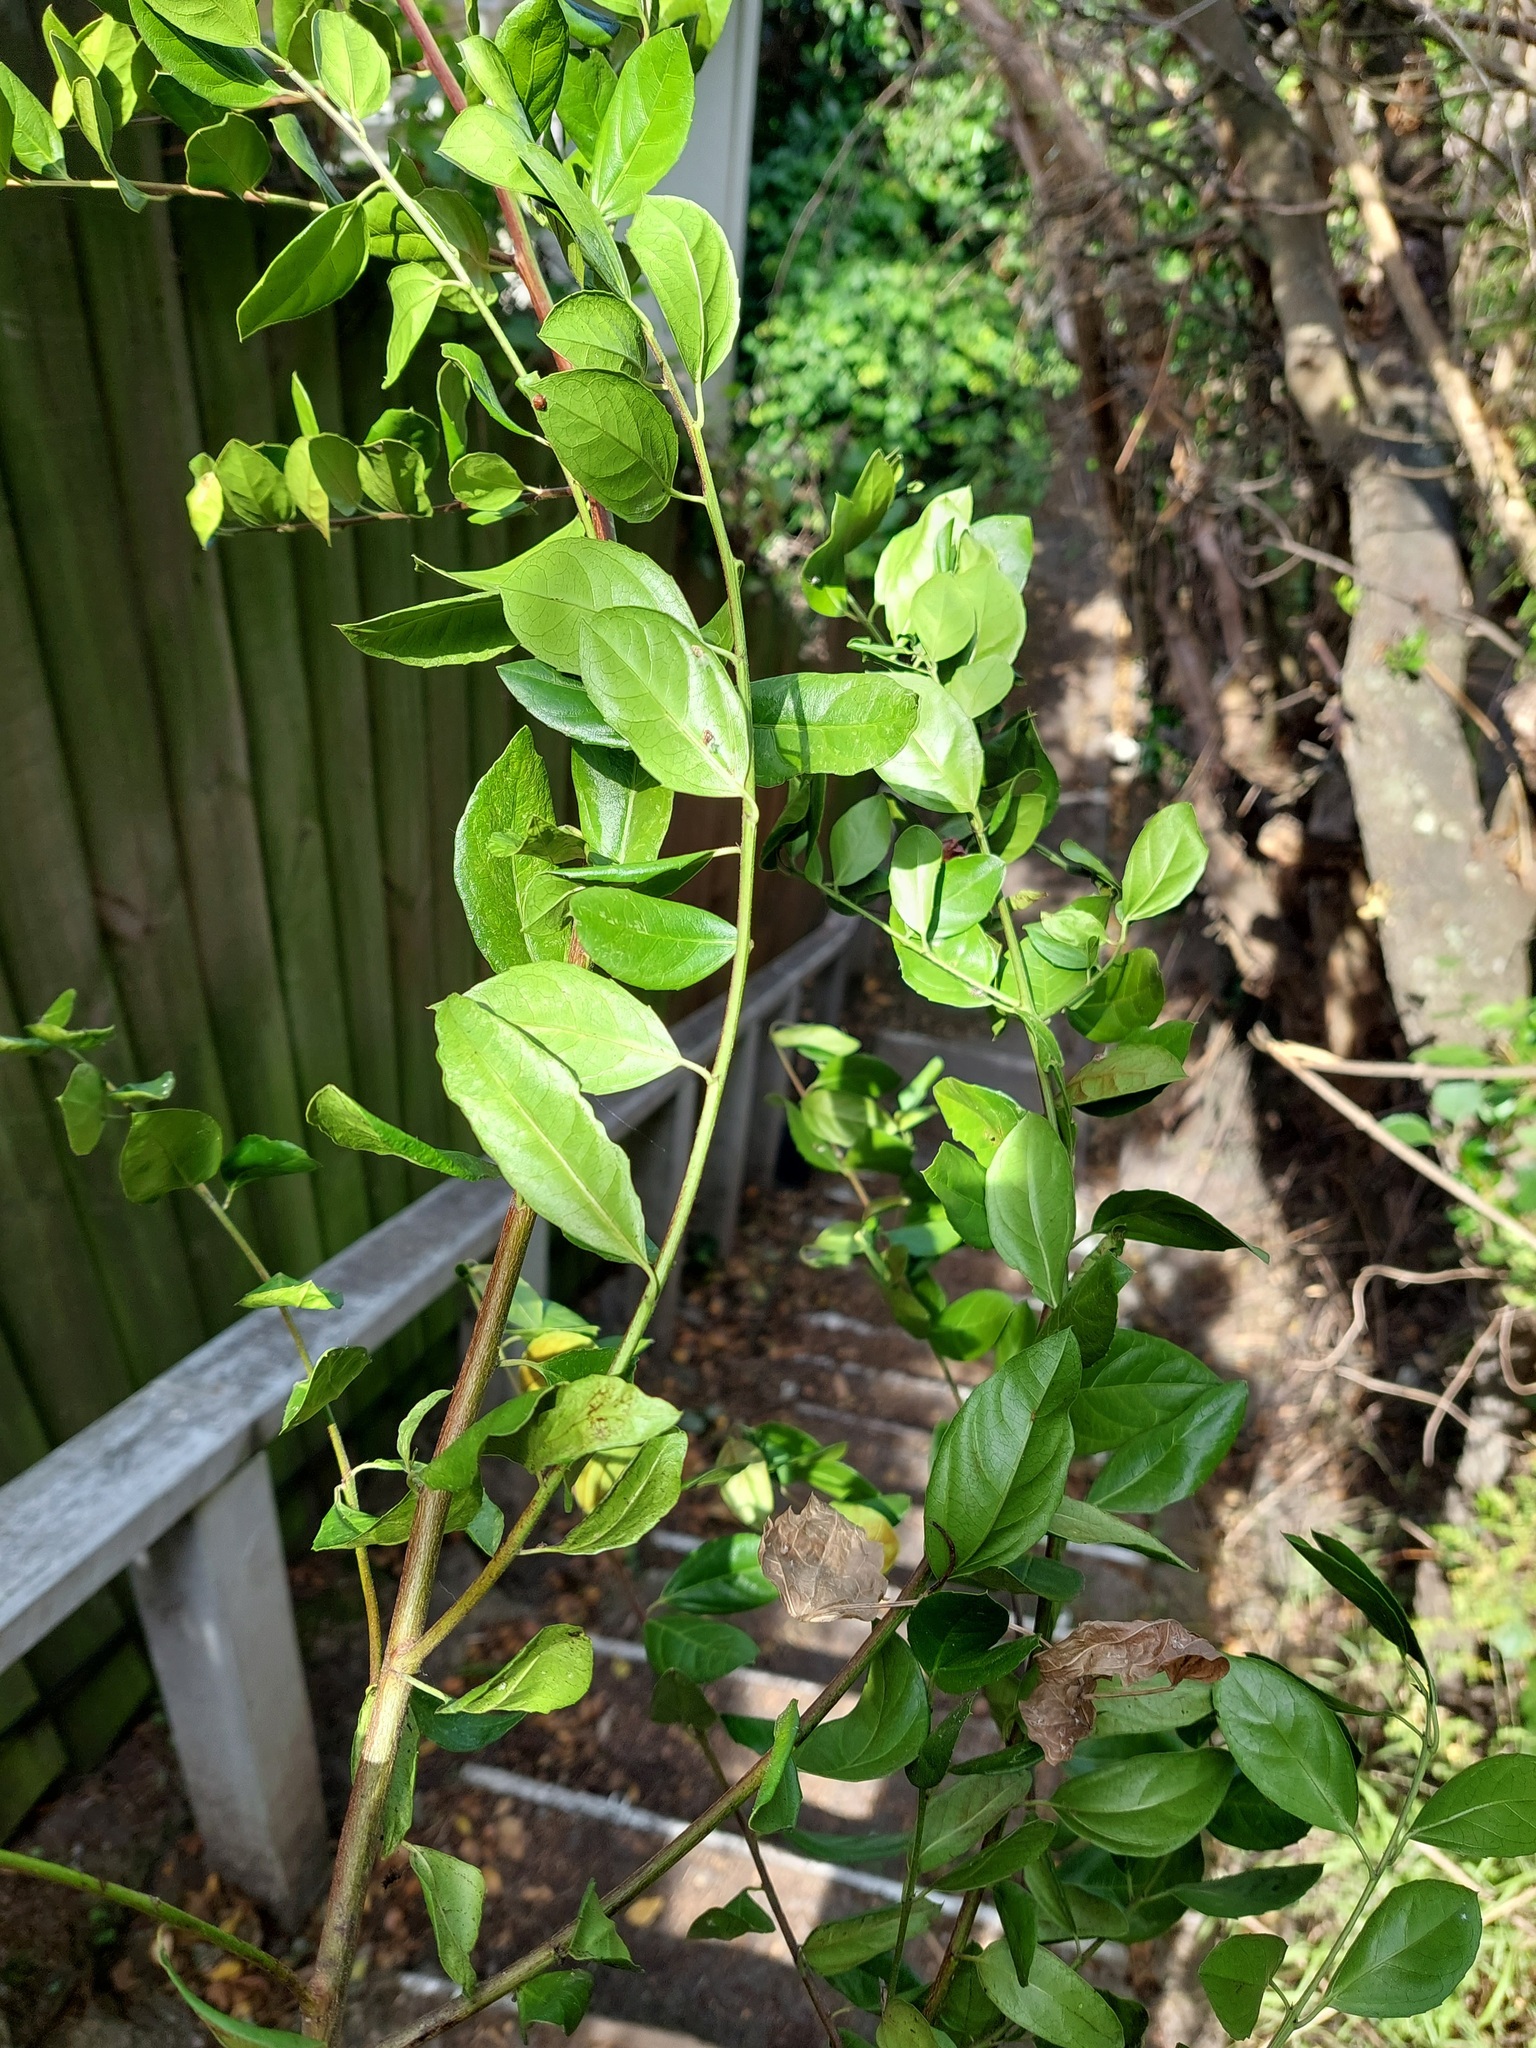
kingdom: Plantae
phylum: Tracheophyta
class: Magnoliopsida
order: Rosales
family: Rhamnaceae
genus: Rhamnus
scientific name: Rhamnus alaternus
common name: Mediterranean buckthorn
